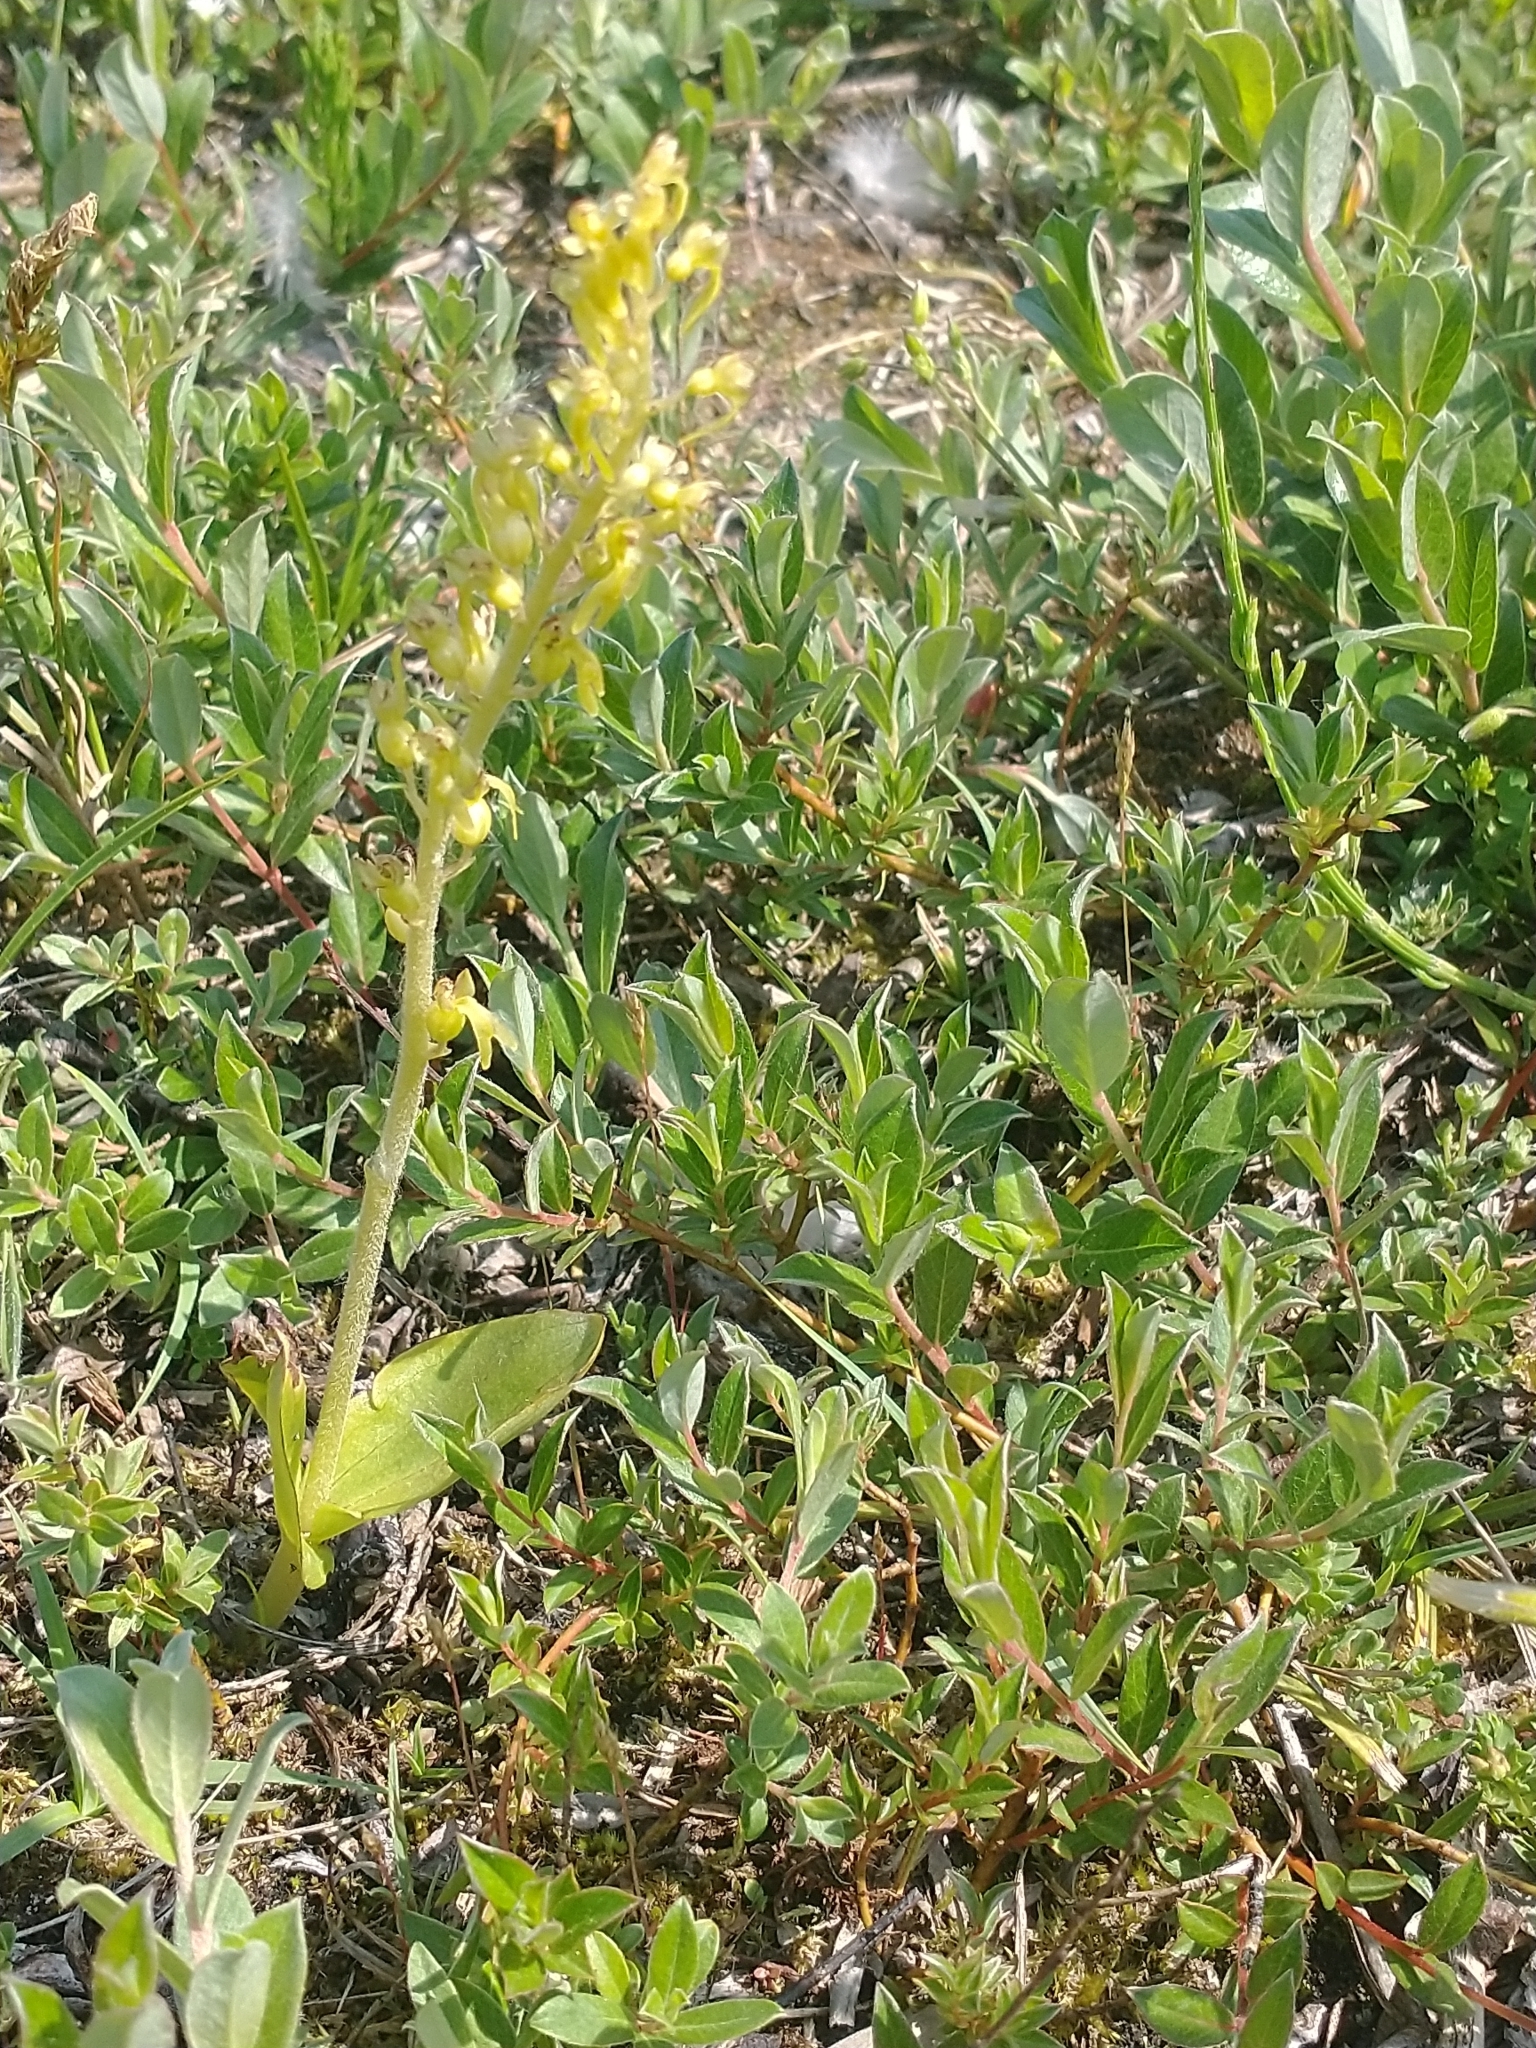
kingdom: Plantae
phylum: Tracheophyta
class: Liliopsida
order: Asparagales
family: Orchidaceae
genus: Neottia
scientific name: Neottia ovata
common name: Common twayblade
